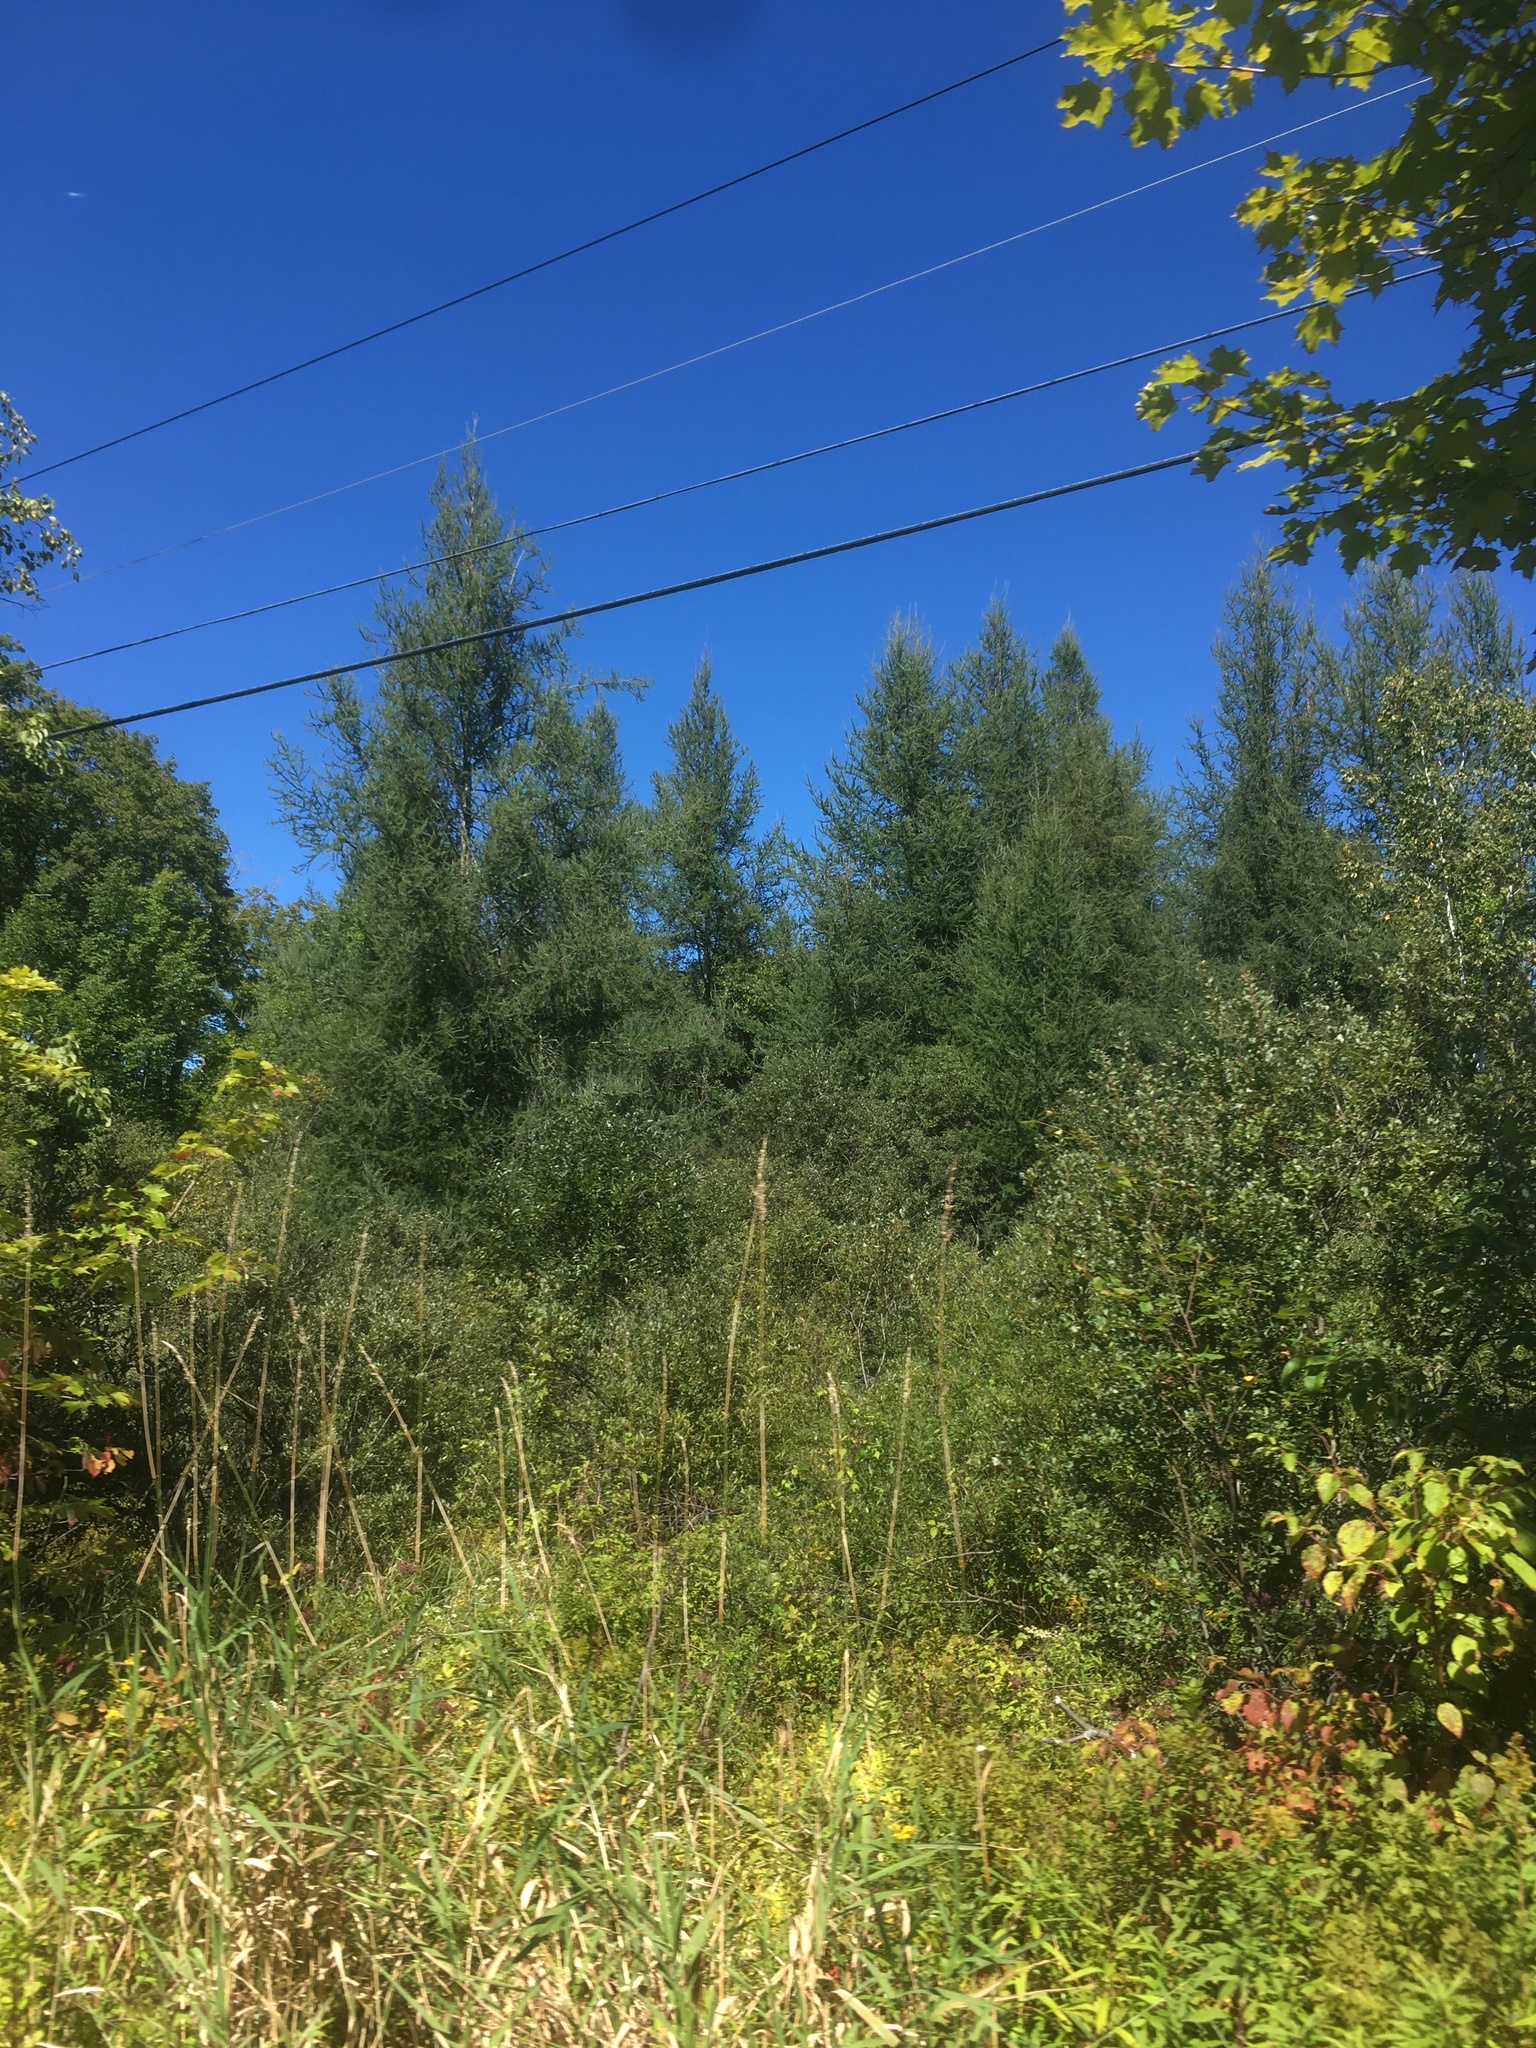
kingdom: Plantae
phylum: Tracheophyta
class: Pinopsida
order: Pinales
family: Pinaceae
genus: Larix
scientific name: Larix laricina
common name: American larch
